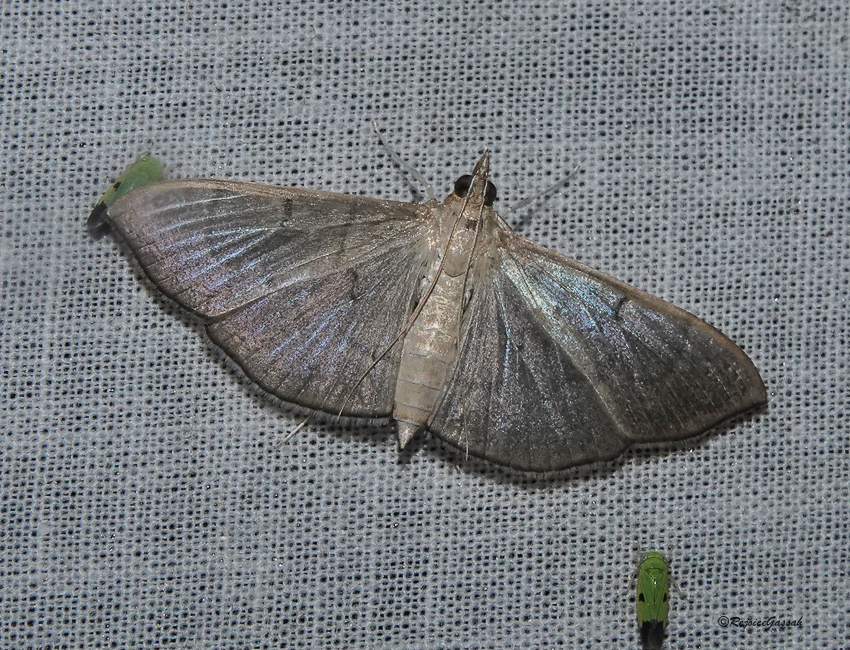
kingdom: Animalia
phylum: Arthropoda
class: Insecta
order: Lepidoptera
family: Crambidae
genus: Lamprophaia
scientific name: Lamprophaia ablactalis
